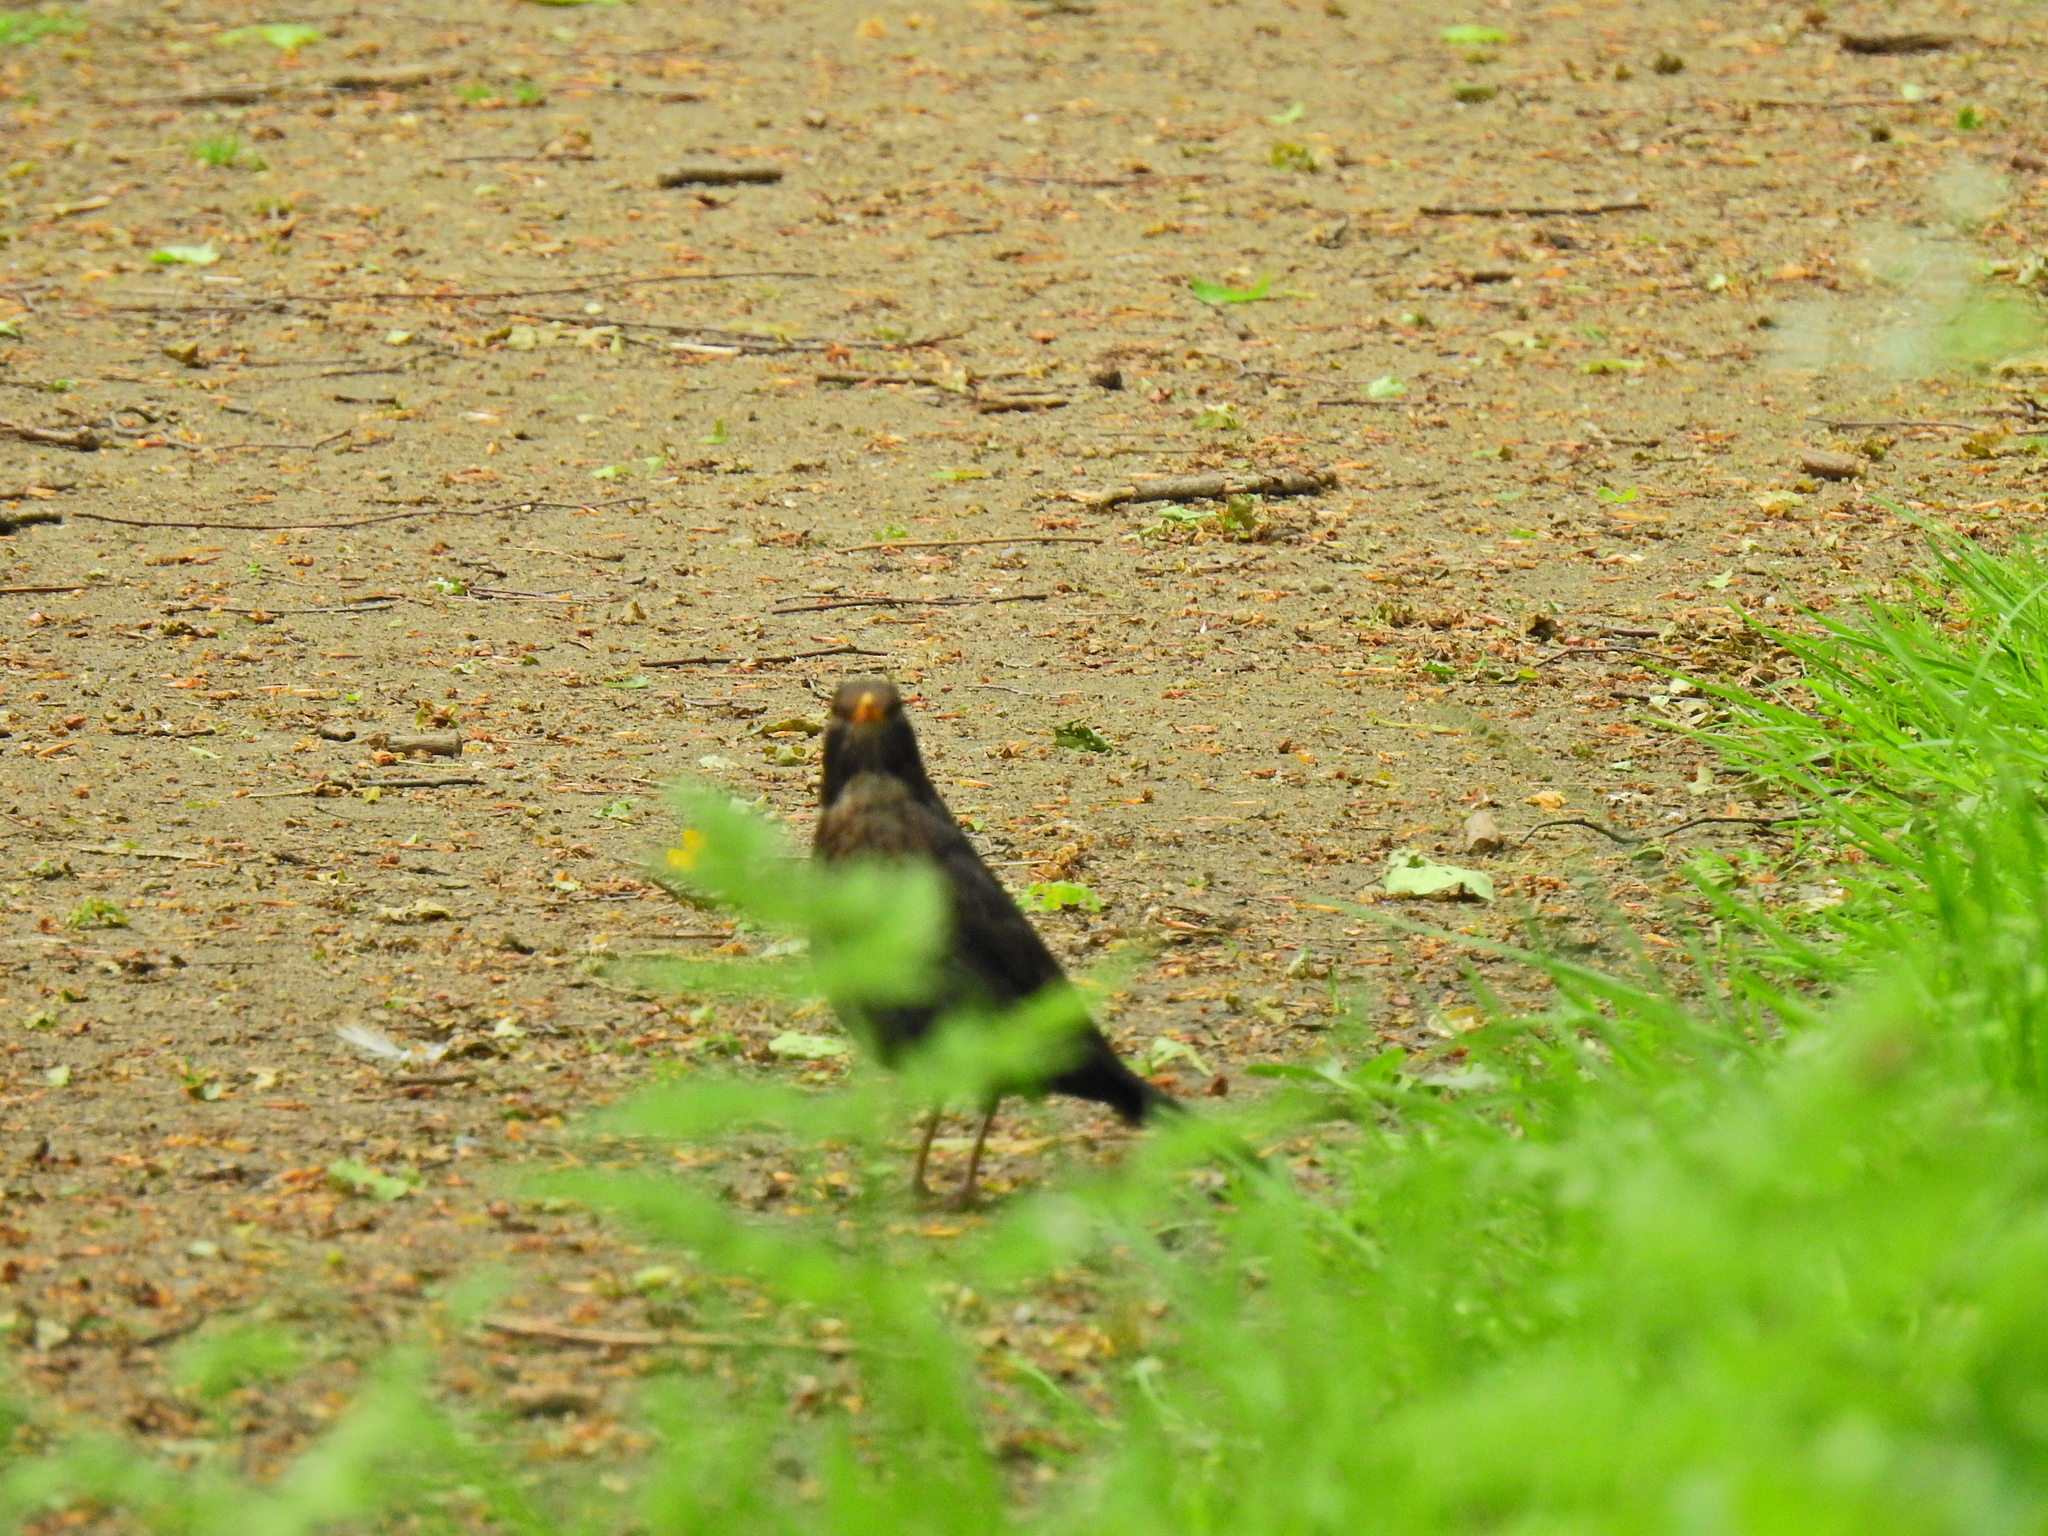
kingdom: Animalia
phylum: Chordata
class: Aves
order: Passeriformes
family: Turdidae
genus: Turdus
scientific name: Turdus merula
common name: Common blackbird
